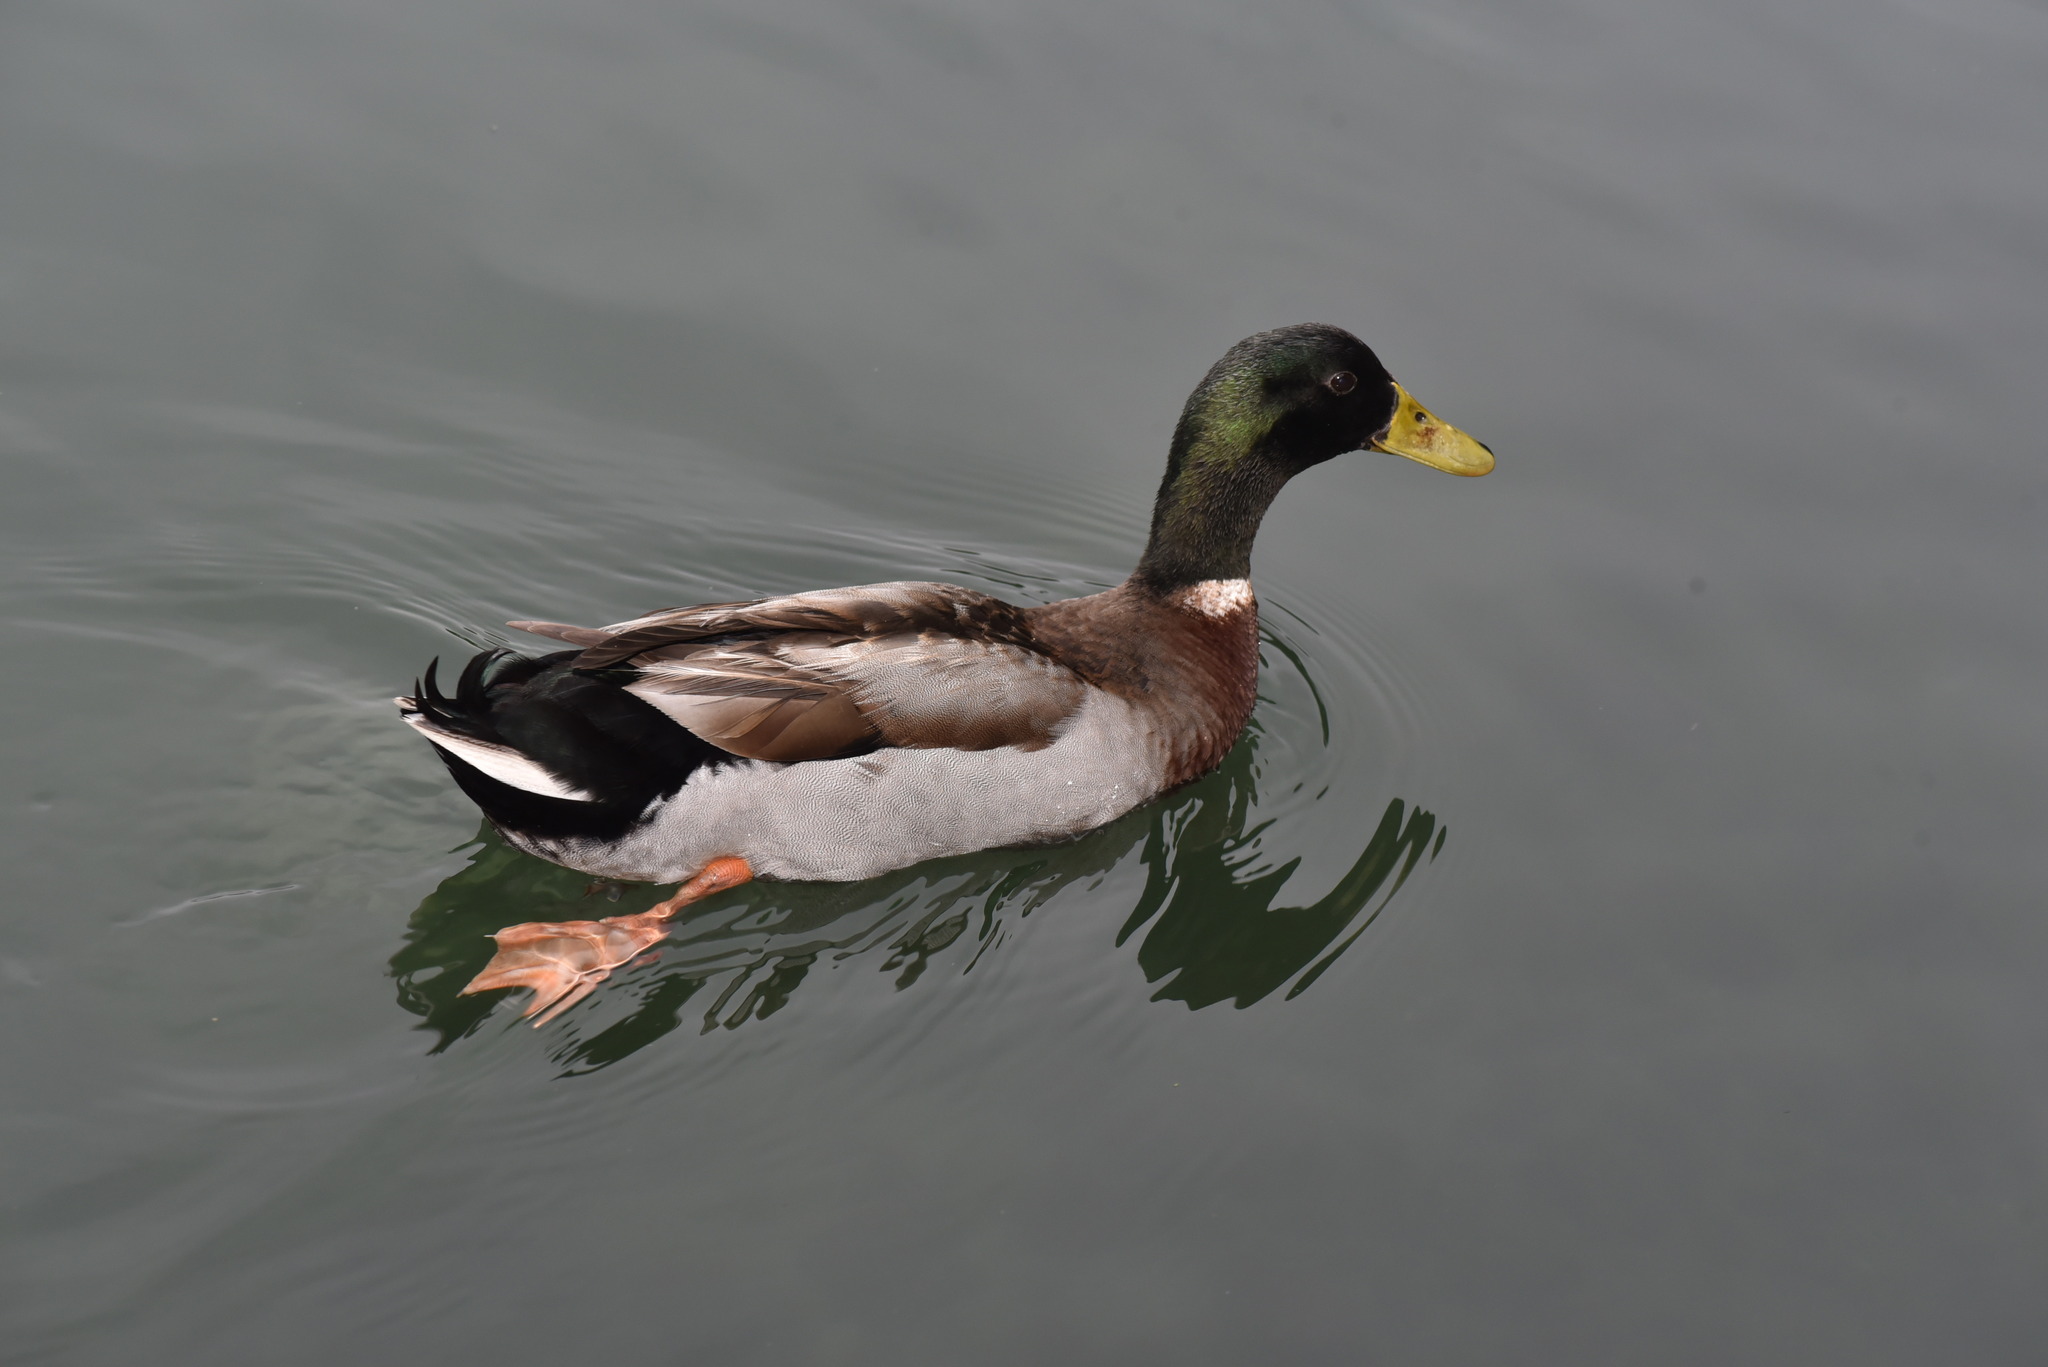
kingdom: Animalia
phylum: Chordata
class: Aves
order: Anseriformes
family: Anatidae
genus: Anas
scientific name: Anas platyrhynchos
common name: Mallard
